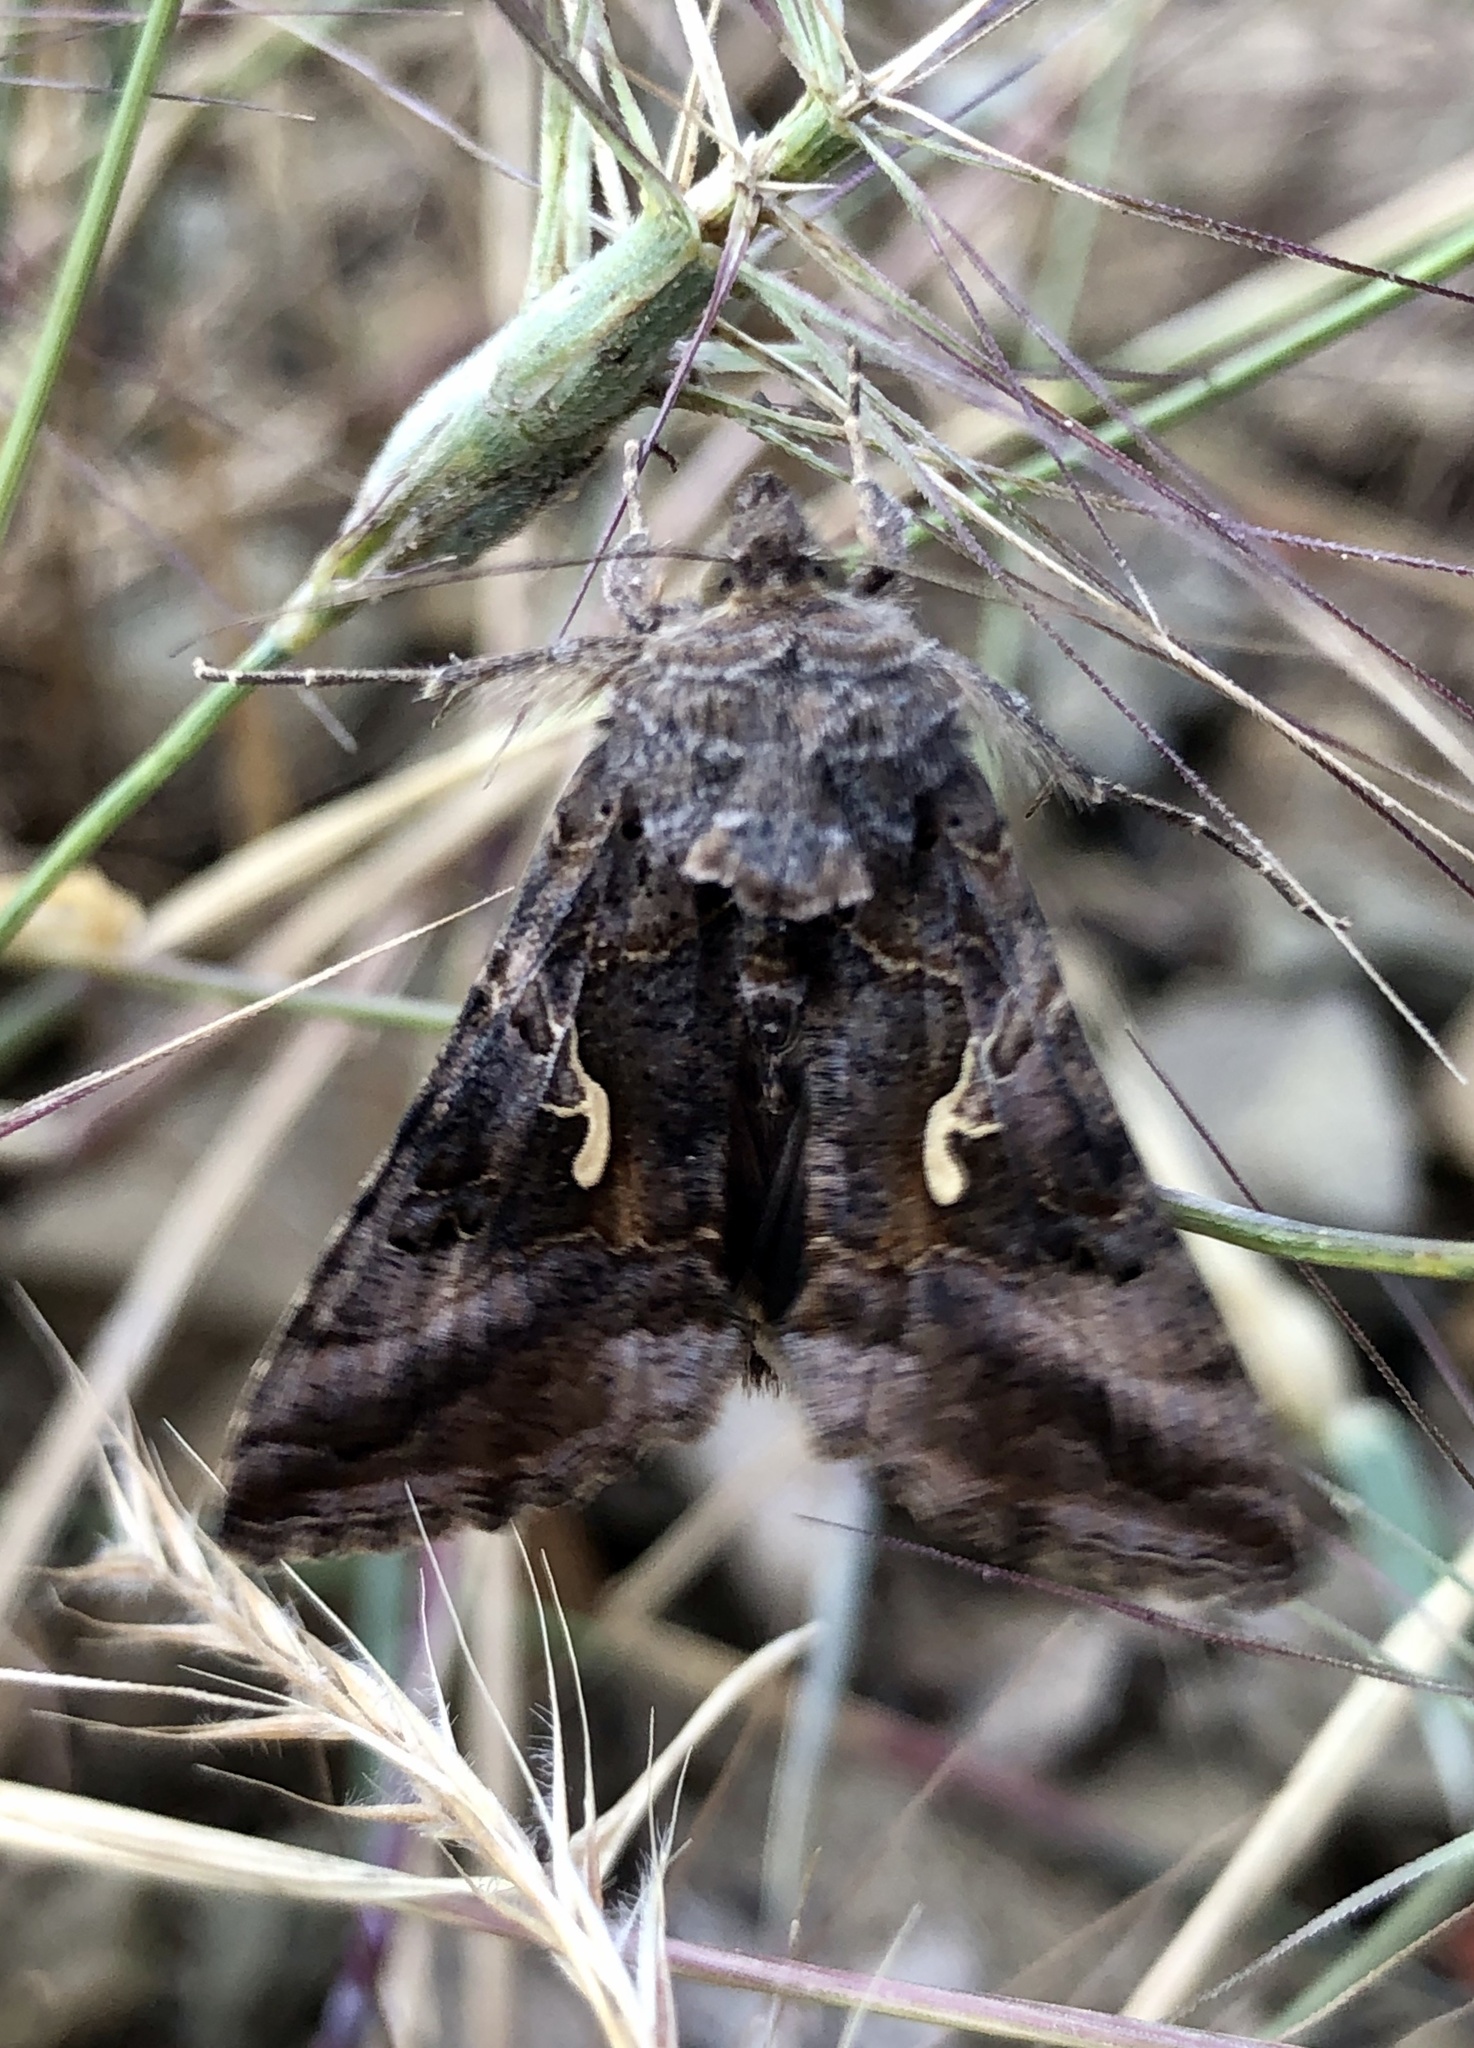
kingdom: Animalia
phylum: Arthropoda
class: Insecta
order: Lepidoptera
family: Noctuidae
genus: Autographa
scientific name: Autographa gamma
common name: Silver y
